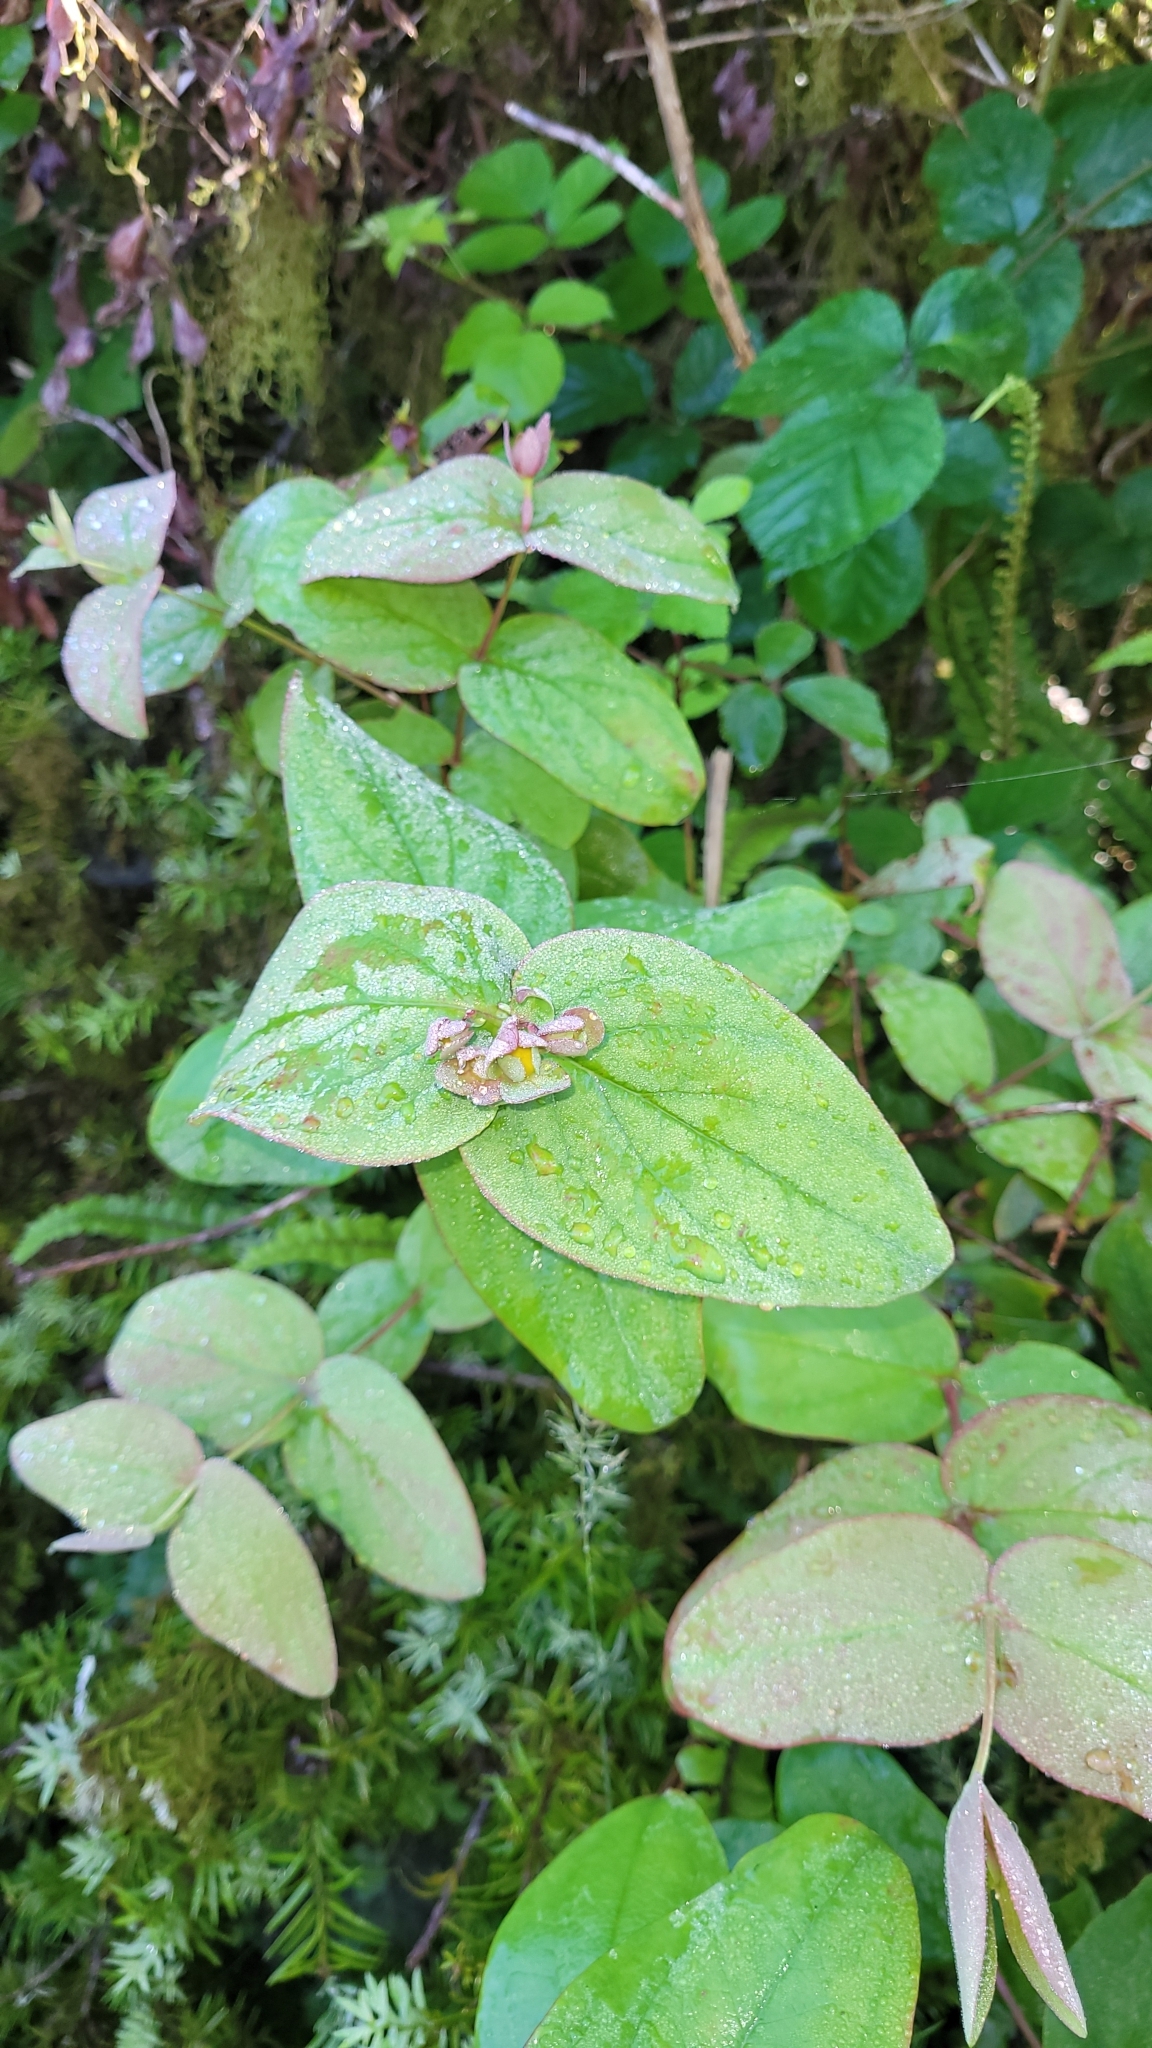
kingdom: Plantae
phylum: Tracheophyta
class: Magnoliopsida
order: Malpighiales
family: Hypericaceae
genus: Hypericum
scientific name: Hypericum androsaemum
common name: Sweet-amber
